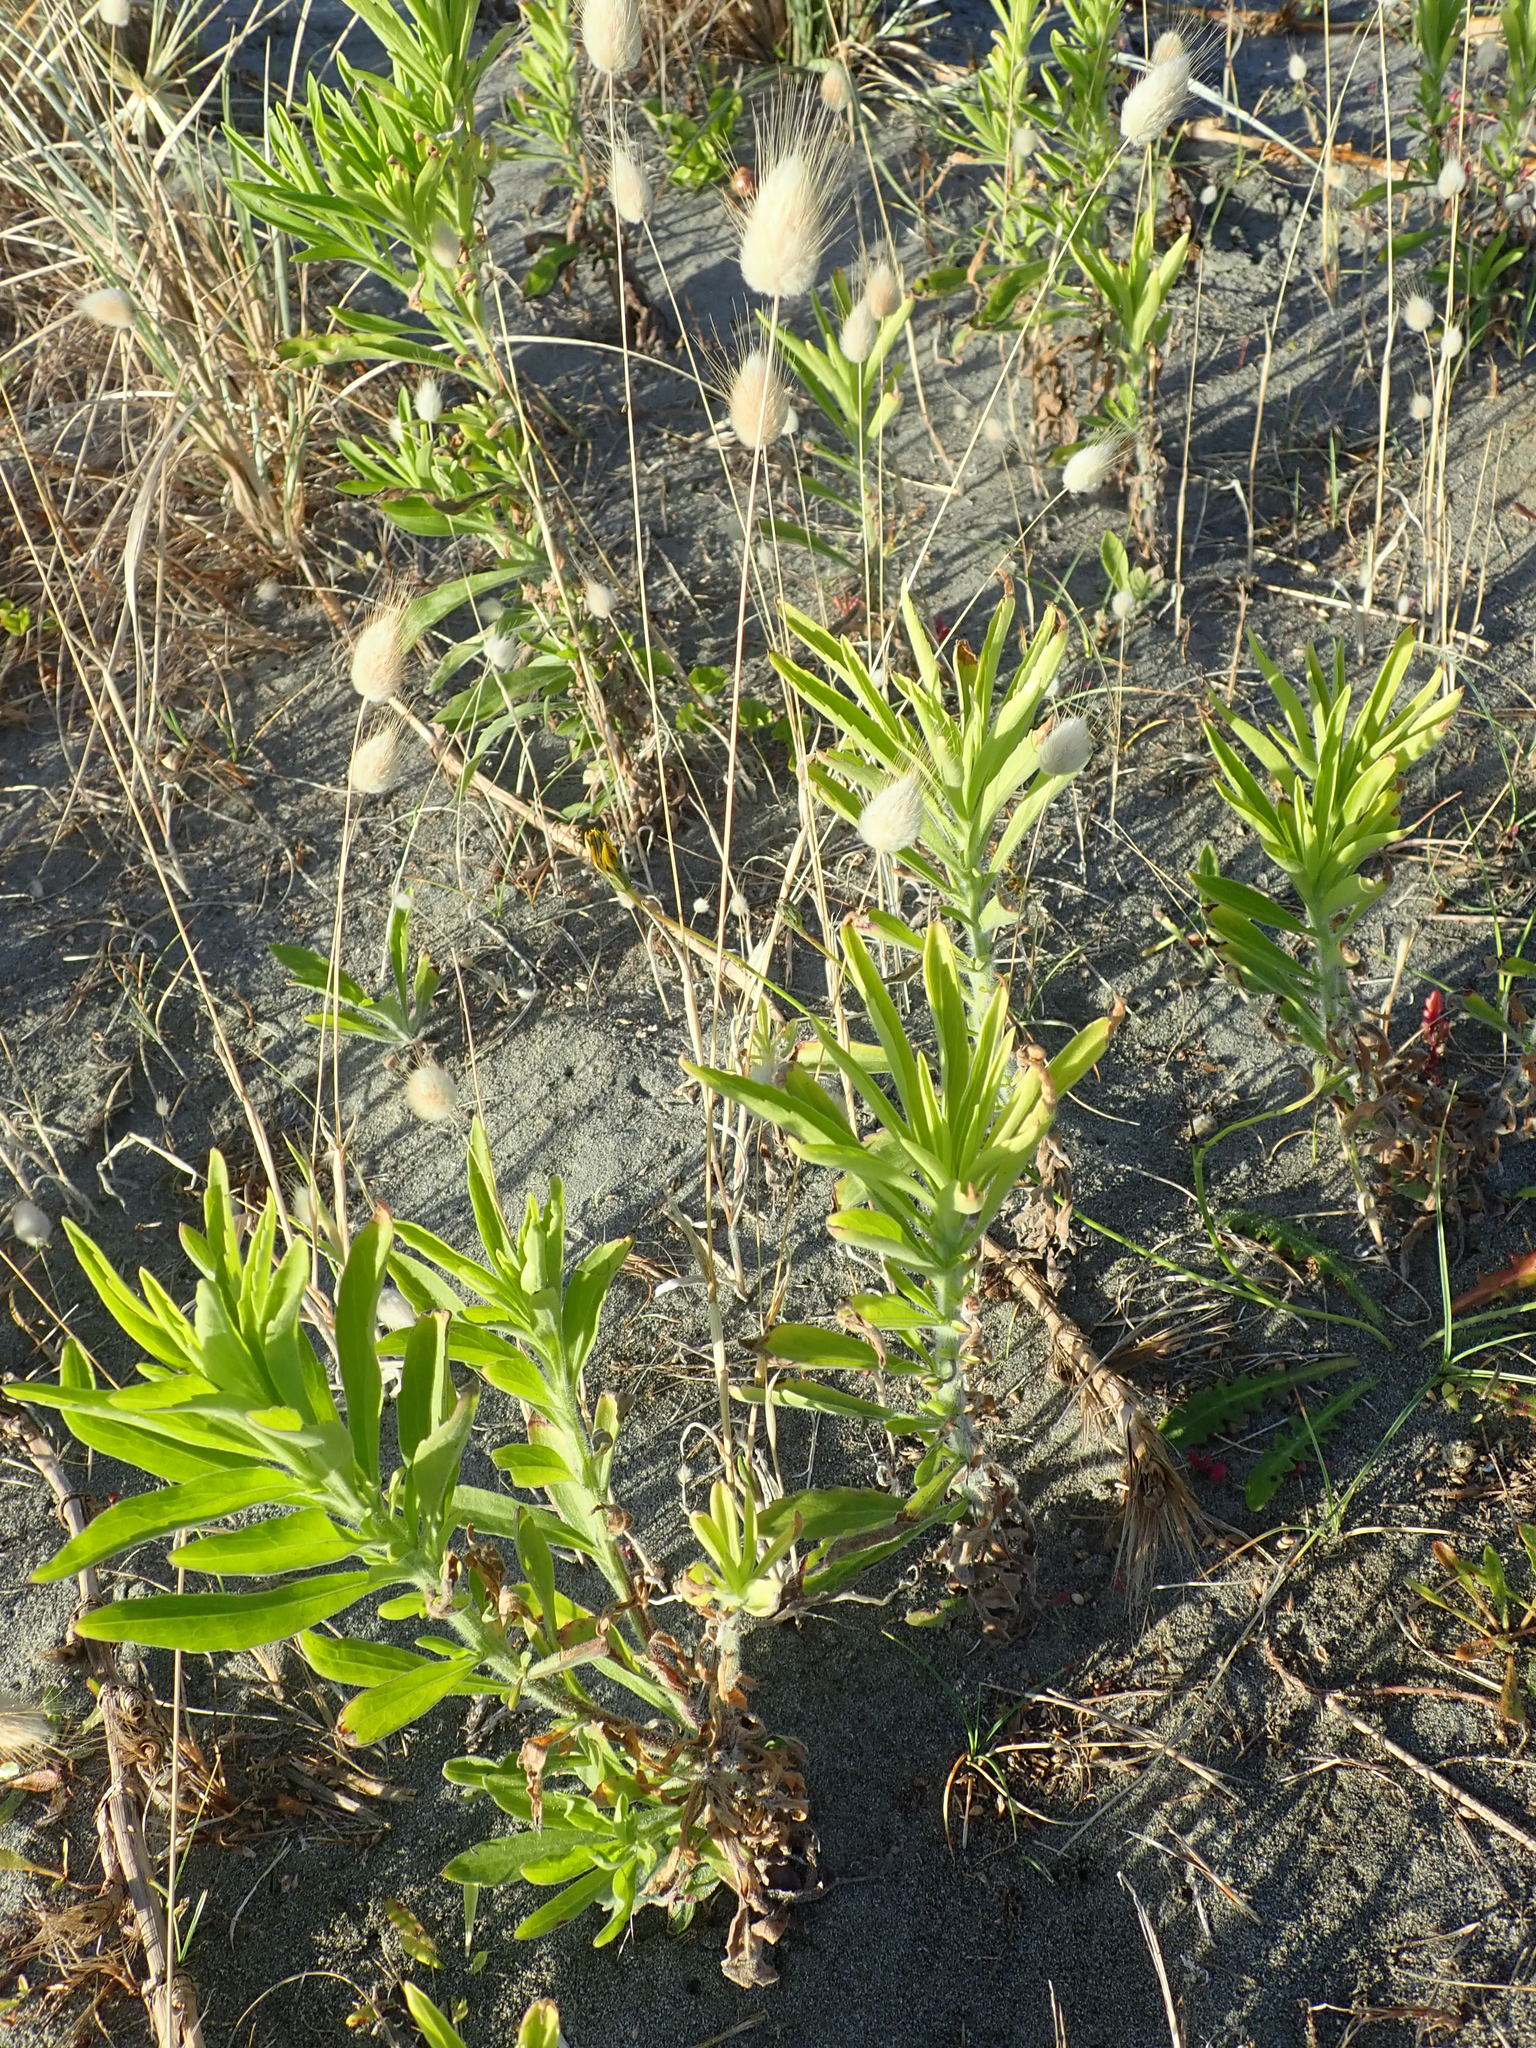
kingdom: Plantae
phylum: Tracheophyta
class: Magnoliopsida
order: Asterales
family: Asteraceae
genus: Erigeron
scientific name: Erigeron sumatrensis
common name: Daisy
